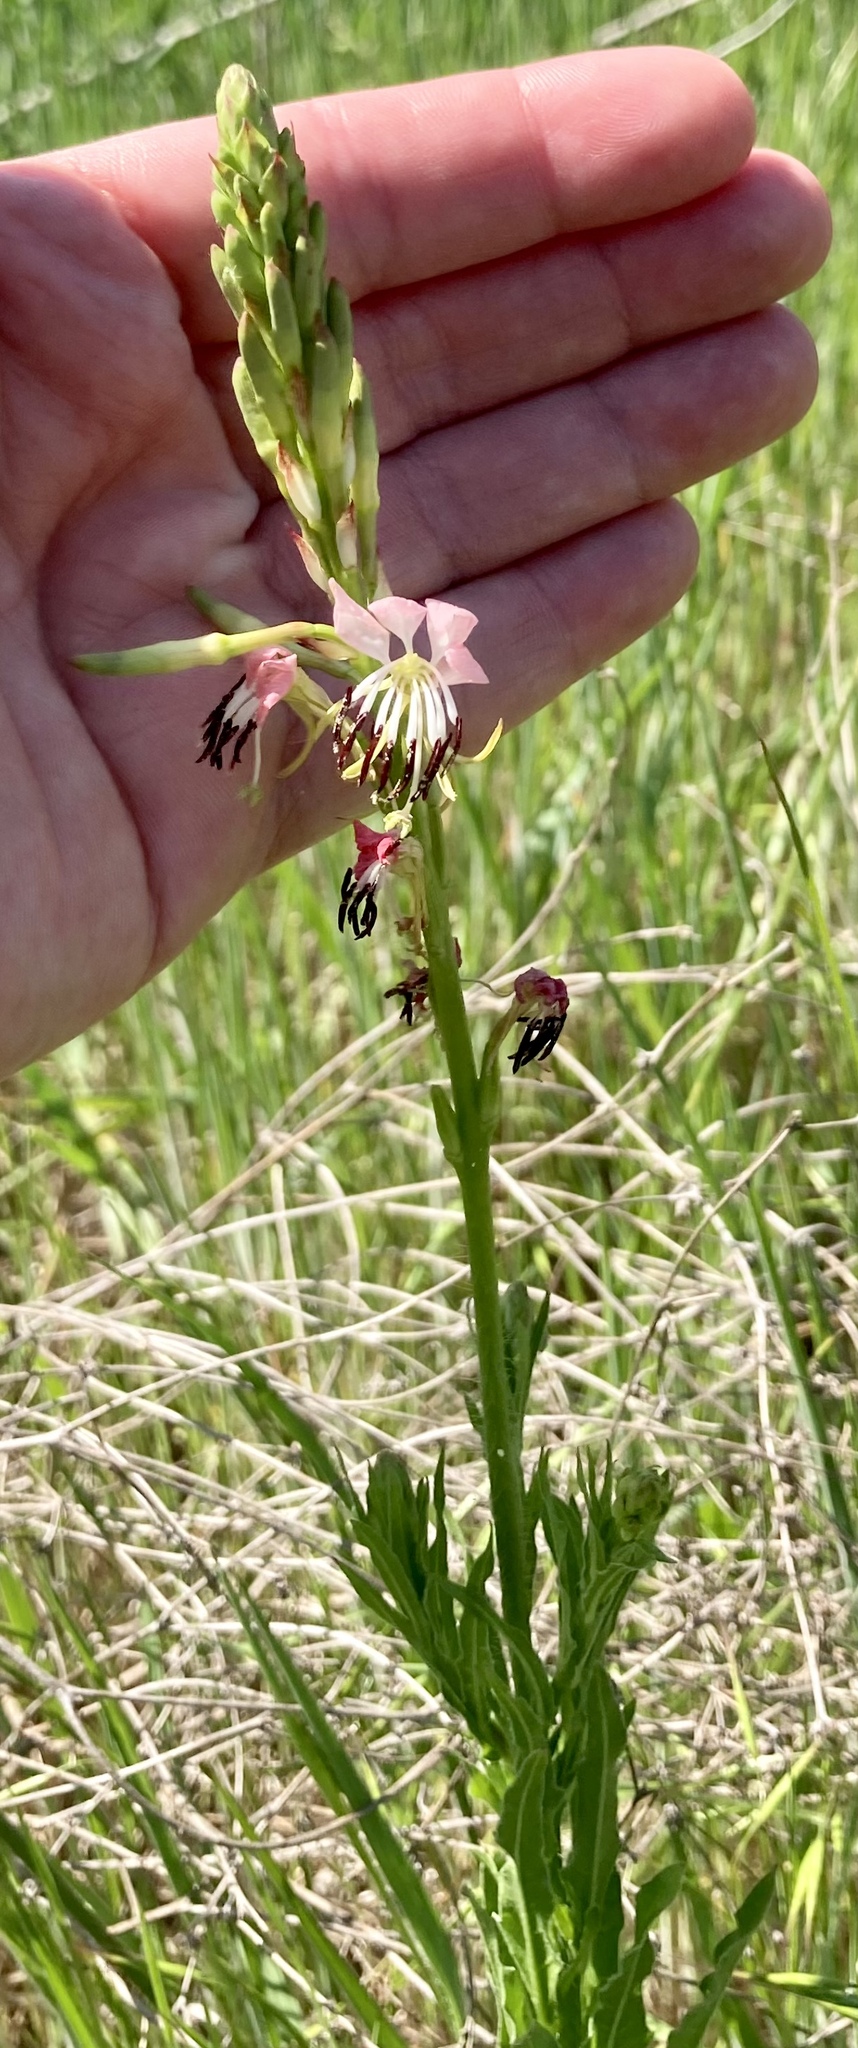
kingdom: Plantae
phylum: Tracheophyta
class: Magnoliopsida
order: Myrtales
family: Onagraceae
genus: Oenothera
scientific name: Oenothera suffulta
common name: Kisses
